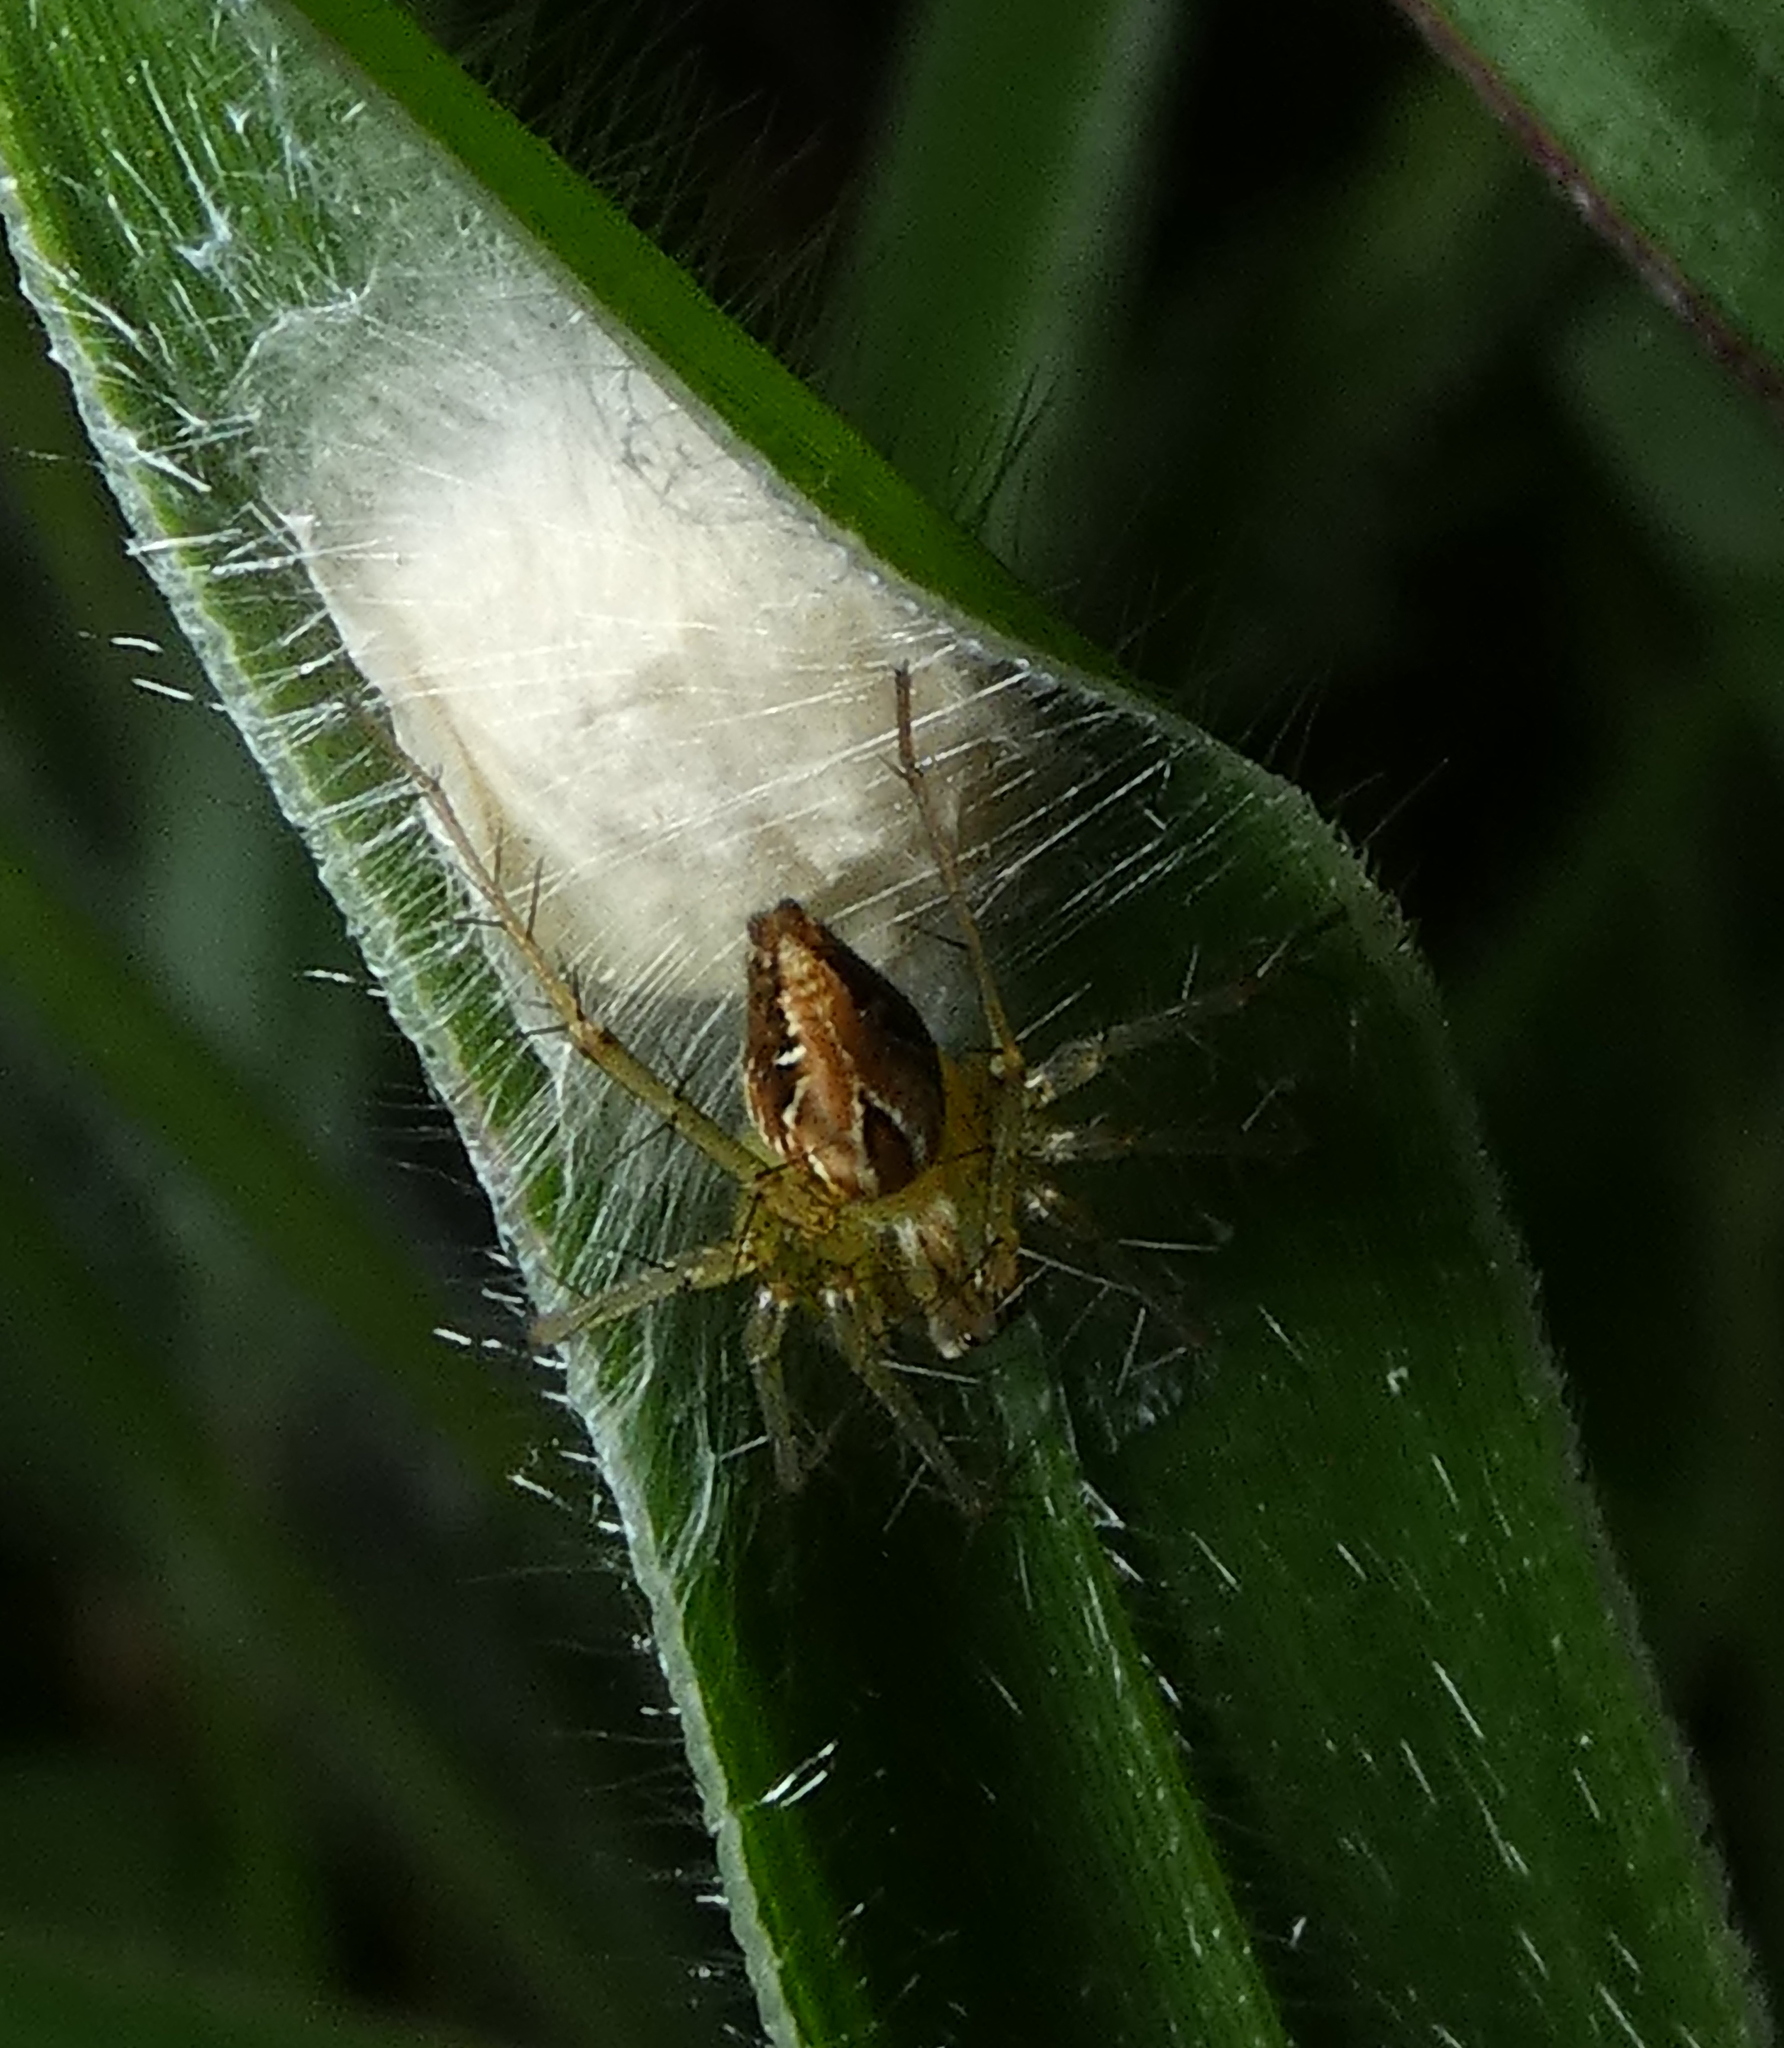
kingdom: Animalia
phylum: Arthropoda
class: Arachnida
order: Araneae
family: Oxyopidae
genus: Oxyopes
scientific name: Oxyopes salticus
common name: Lynx spiders
